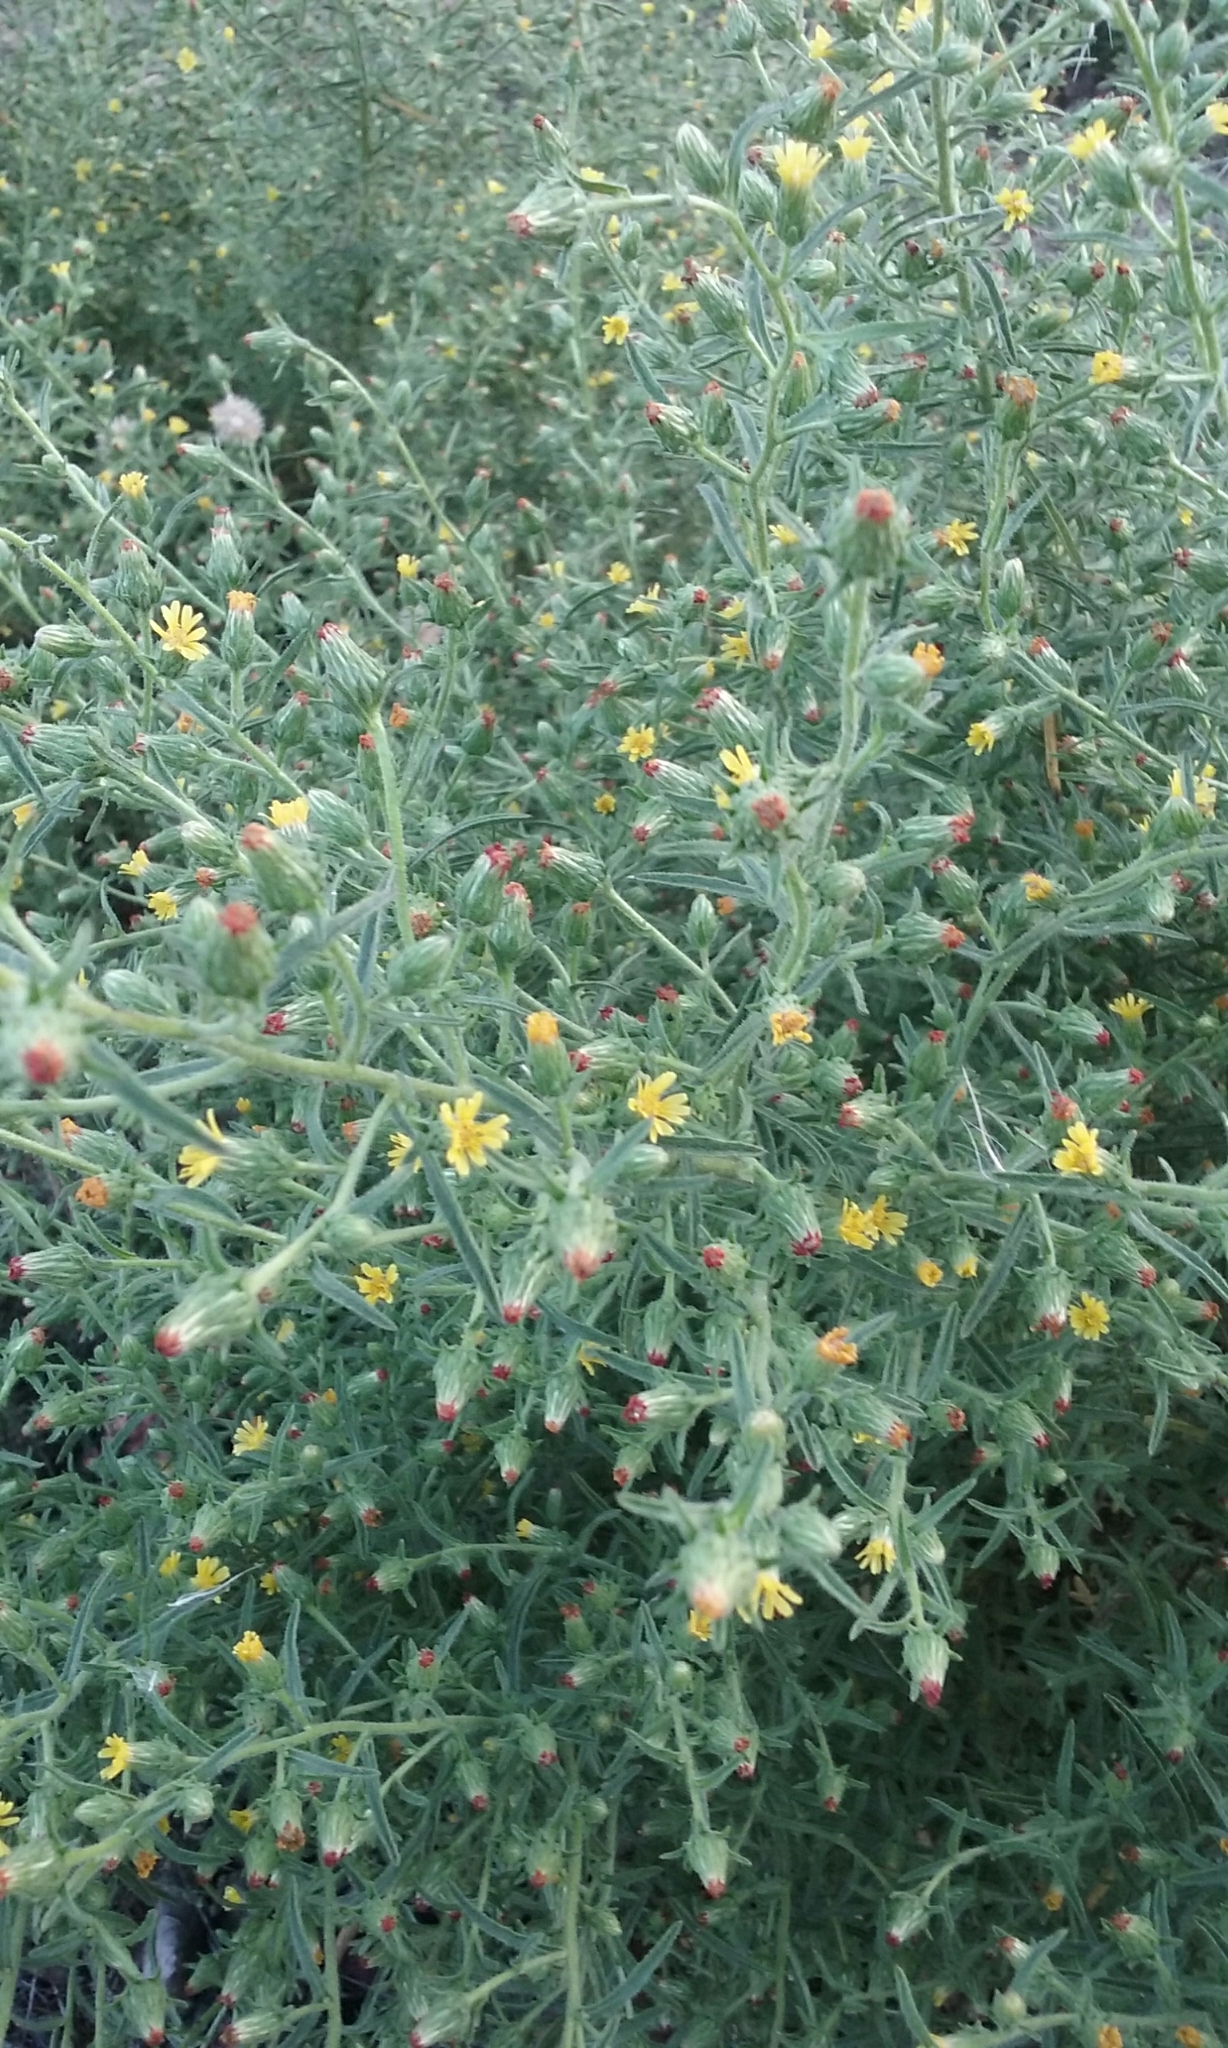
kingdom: Plantae
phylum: Tracheophyta
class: Magnoliopsida
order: Asterales
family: Asteraceae
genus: Dittrichia
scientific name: Dittrichia graveolens
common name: Stinking fleabane
